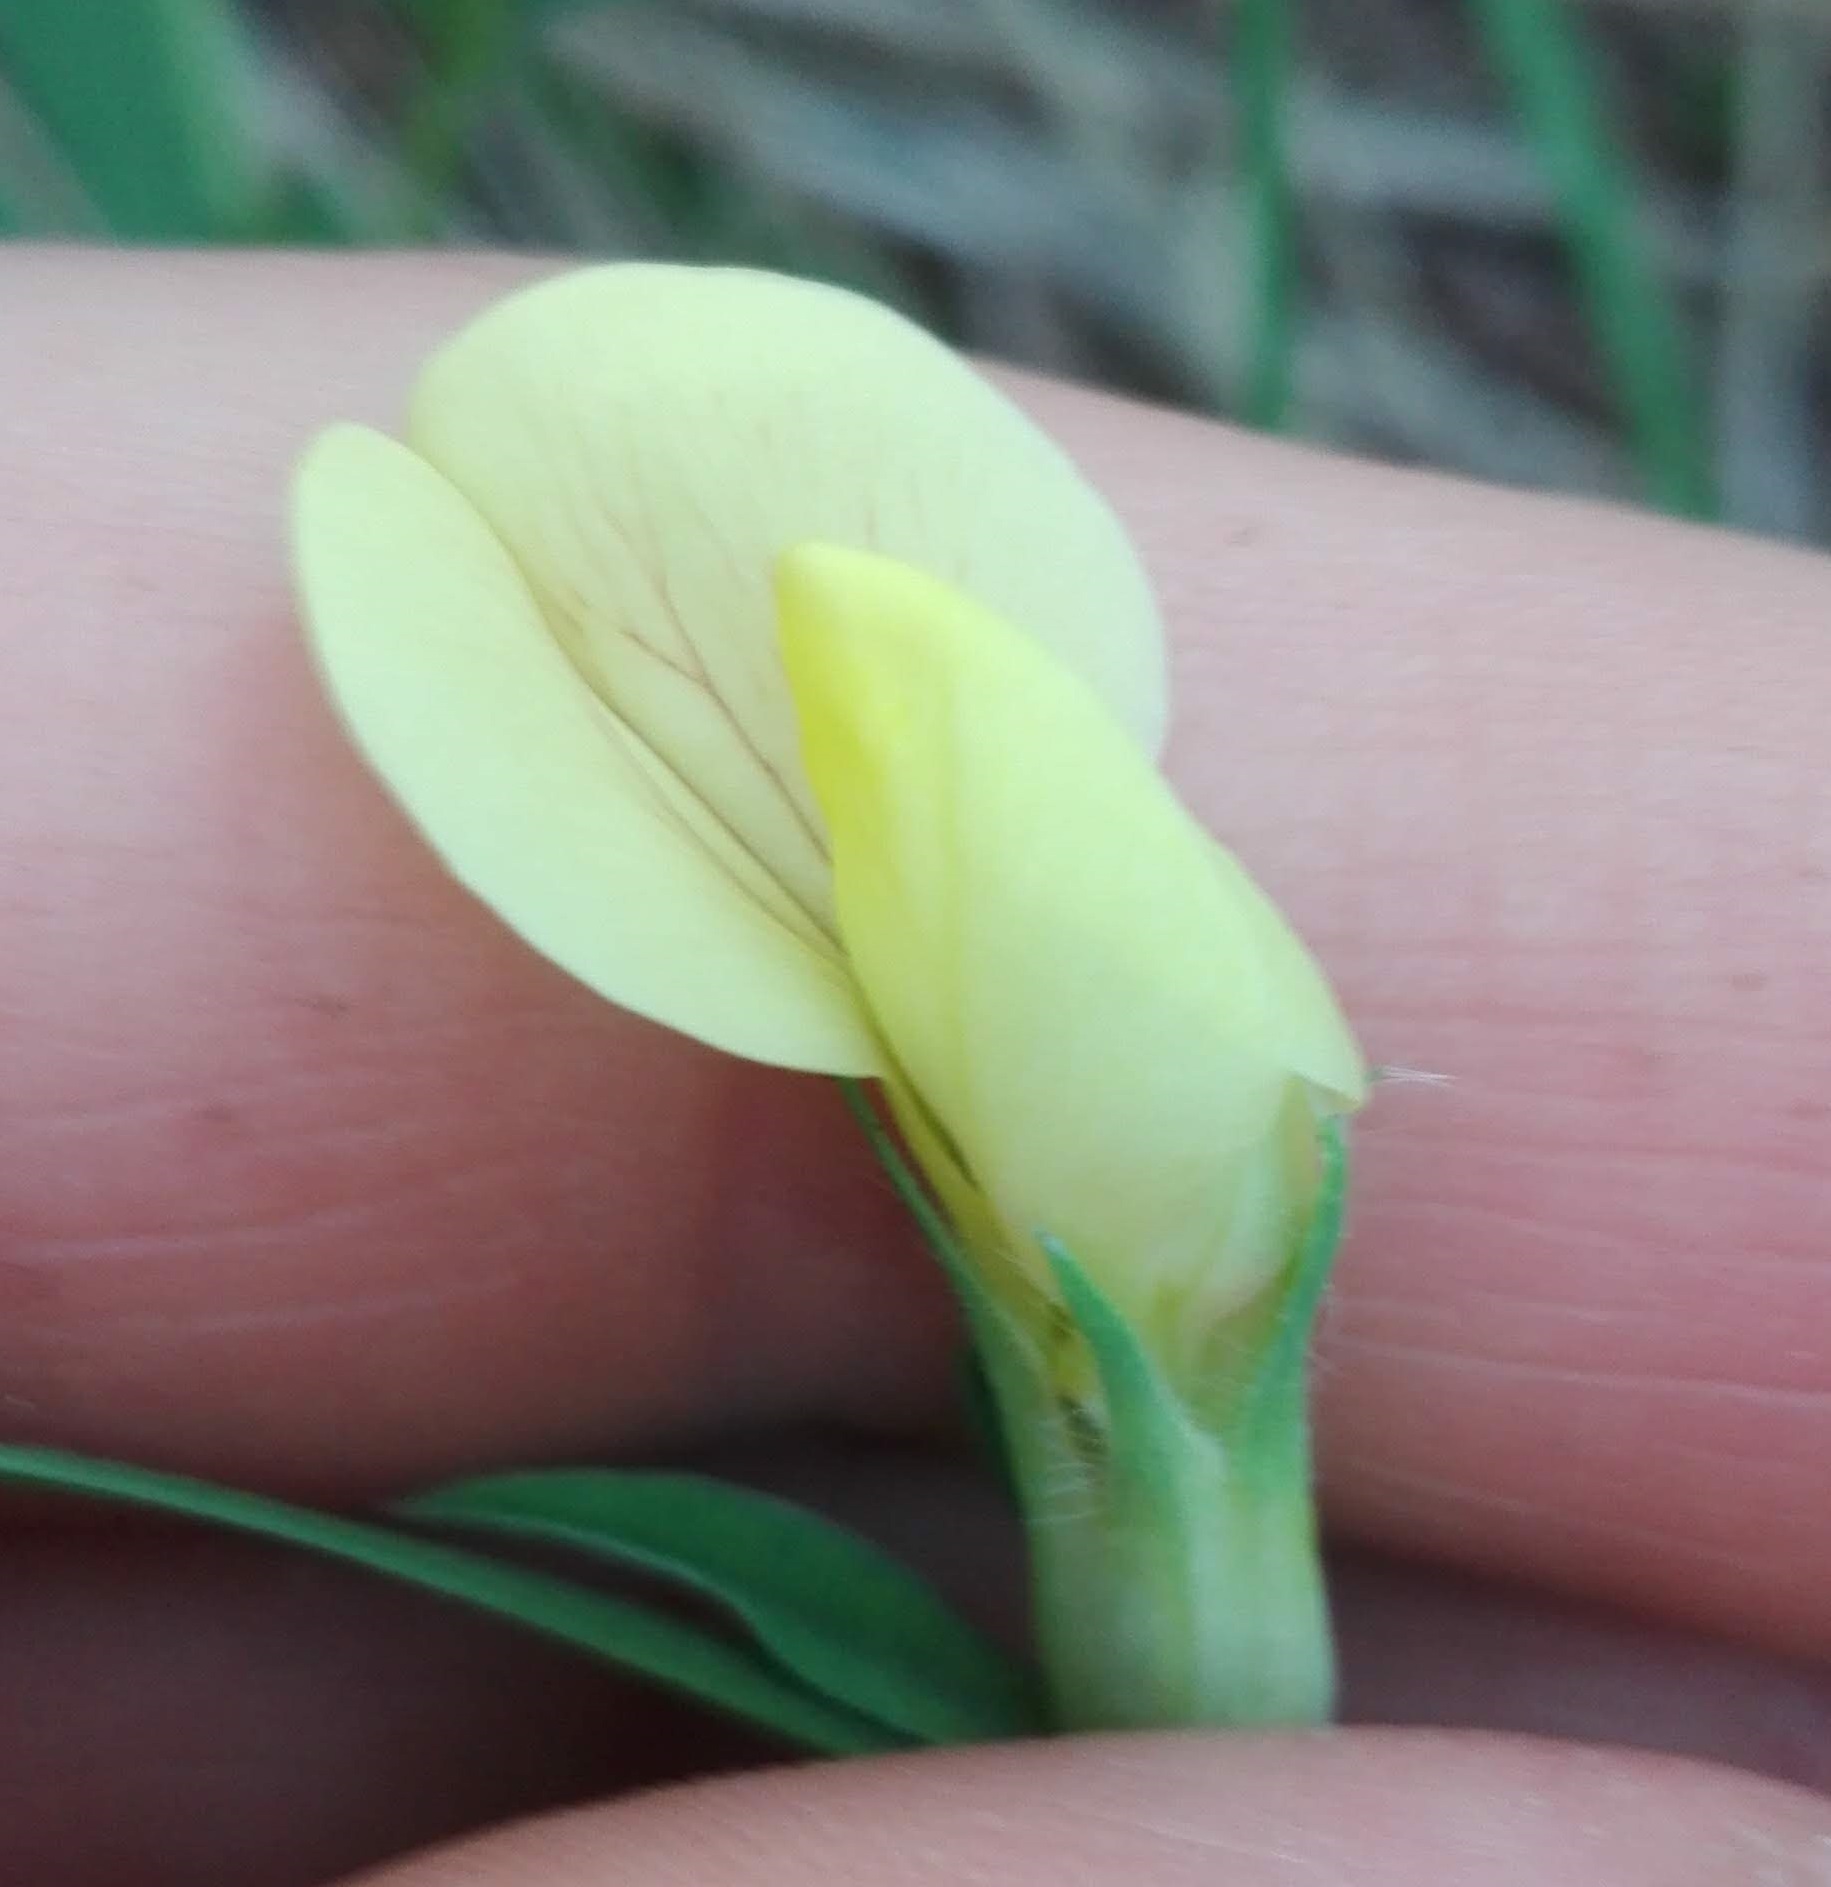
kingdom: Plantae
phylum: Tracheophyta
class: Magnoliopsida
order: Fabales
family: Fabaceae
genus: Lotus
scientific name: Lotus maritimus
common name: Dragon's-teeth
